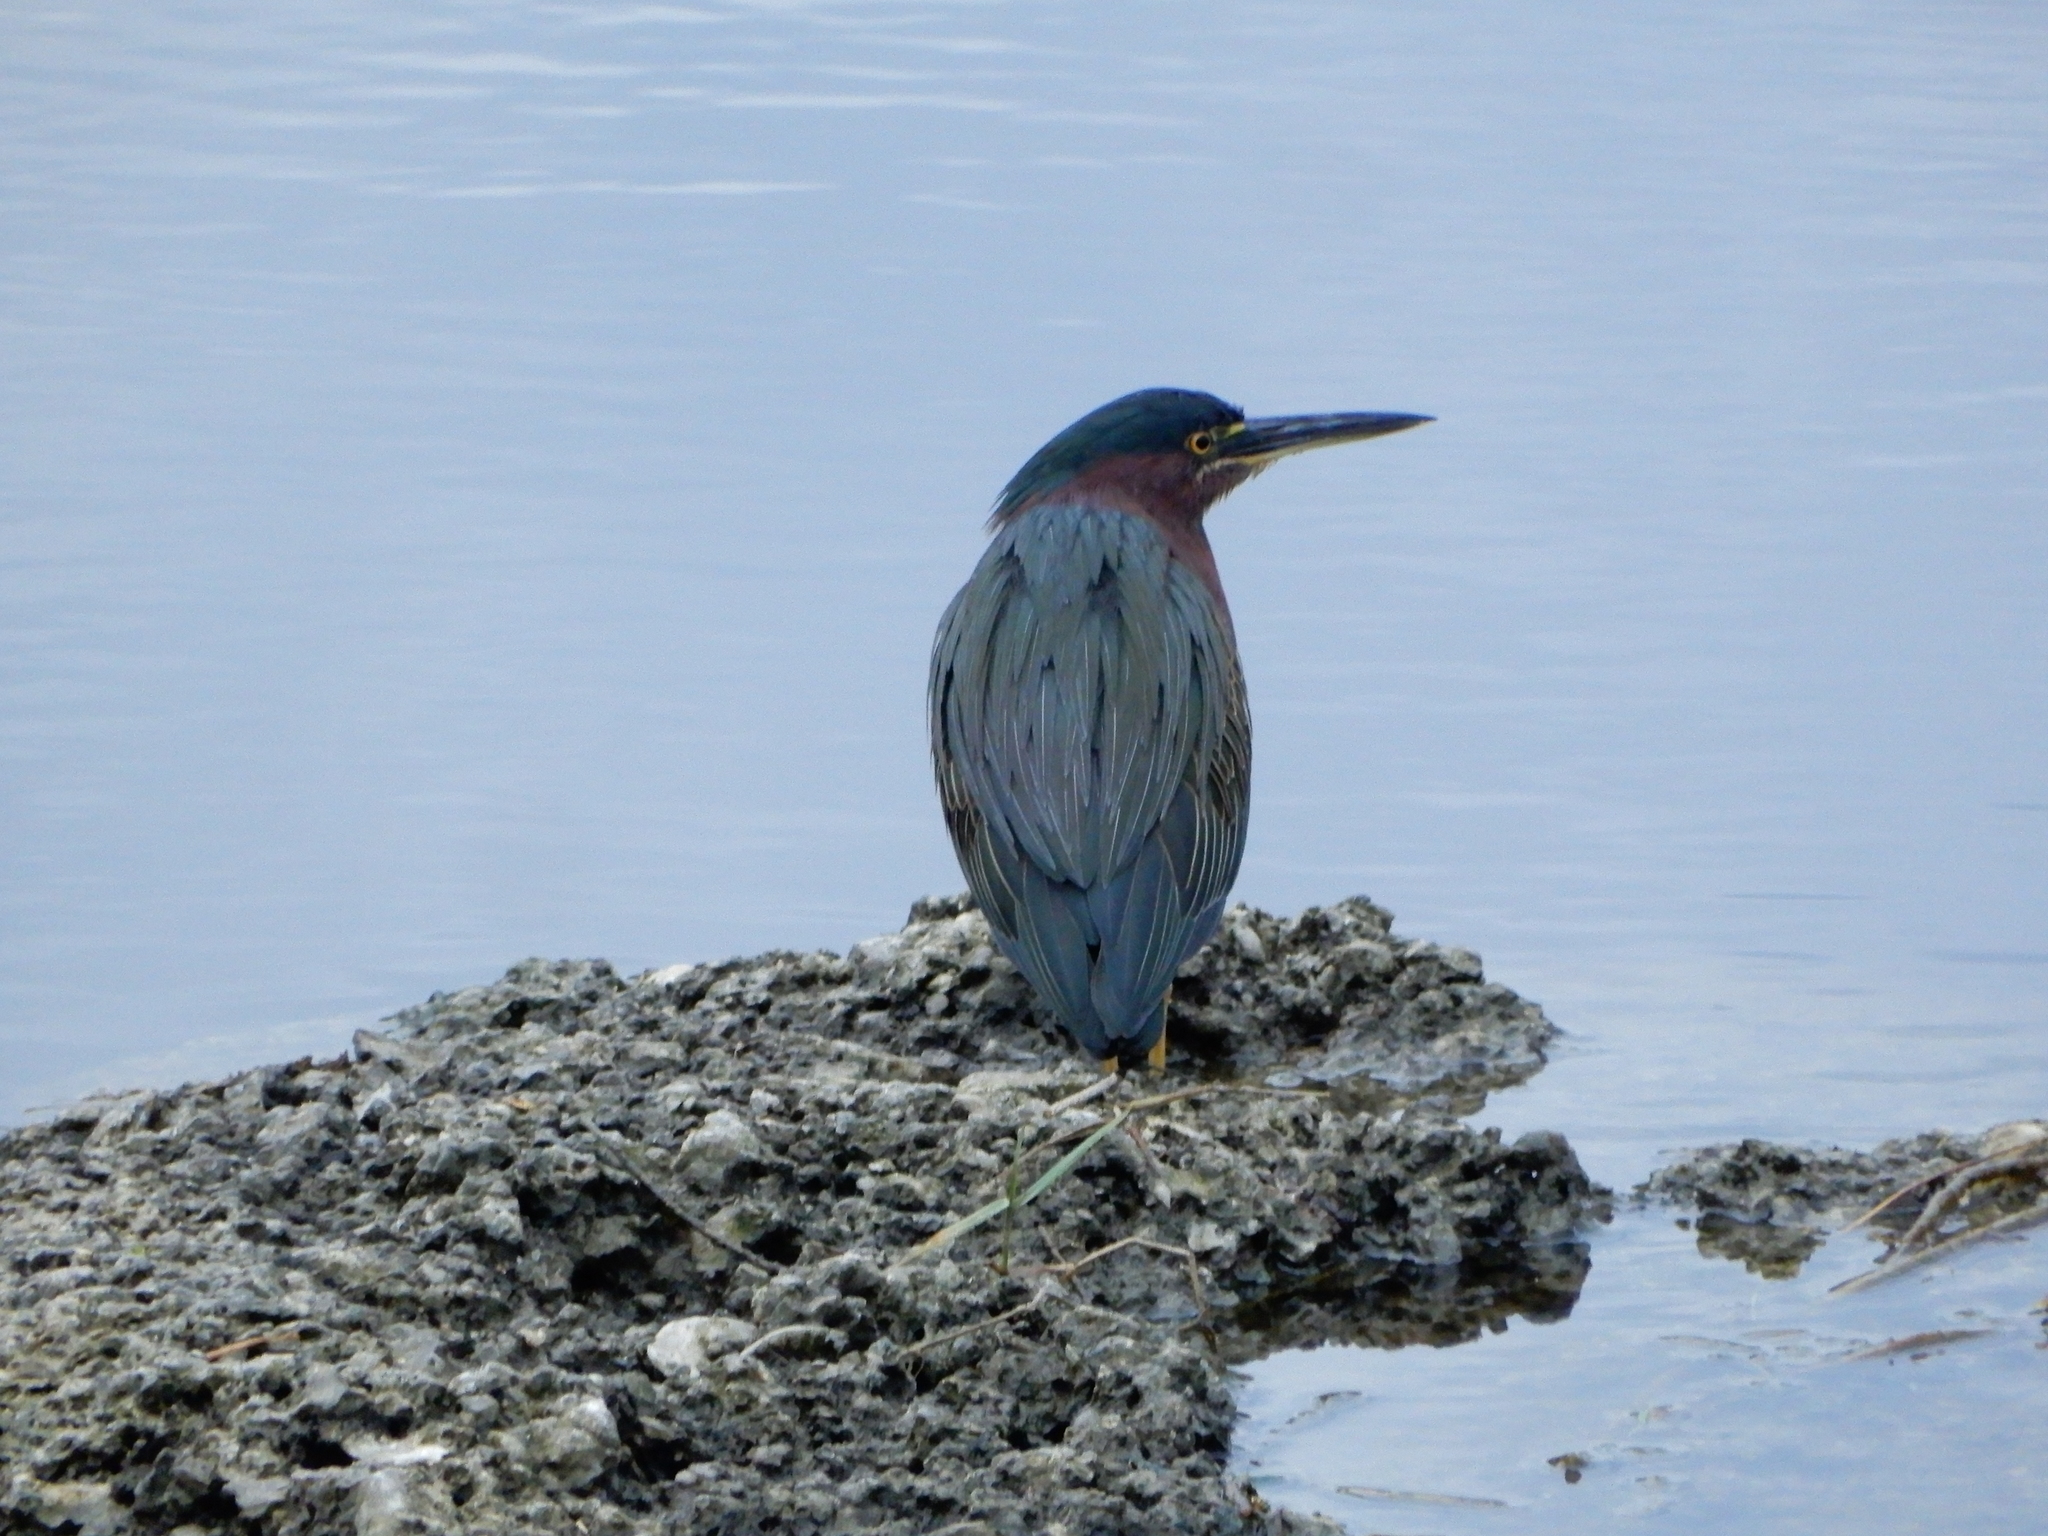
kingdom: Animalia
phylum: Chordata
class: Aves
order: Pelecaniformes
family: Ardeidae
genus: Butorides
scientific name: Butorides virescens
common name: Green heron
